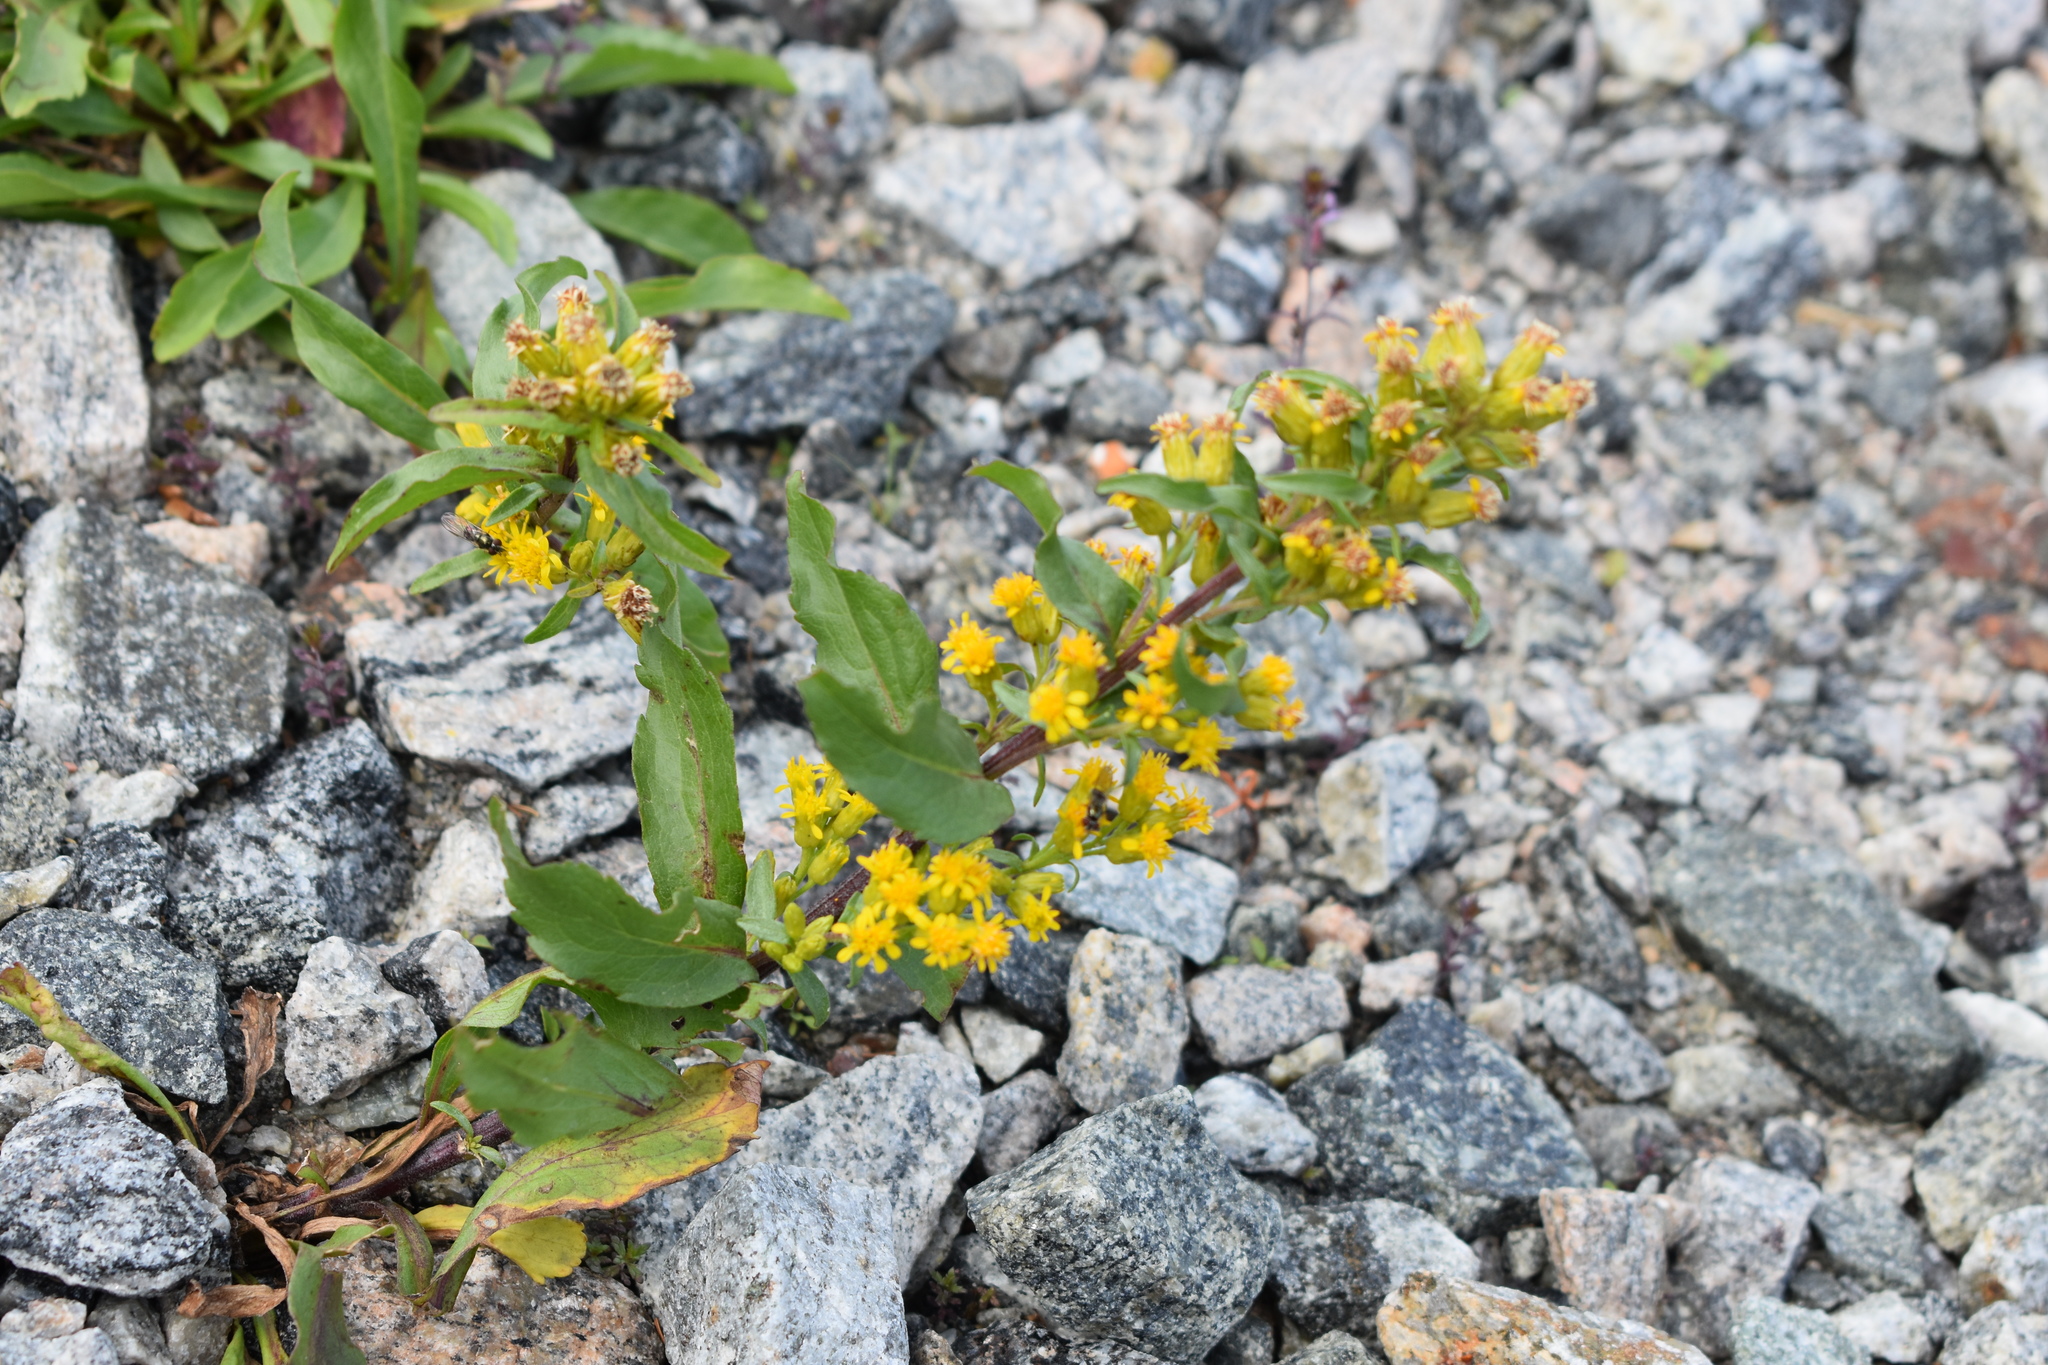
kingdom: Plantae
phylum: Tracheophyta
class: Magnoliopsida
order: Asterales
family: Asteraceae
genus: Solidago
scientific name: Solidago leiocarpa
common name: Cutler's alpine goldenrod
